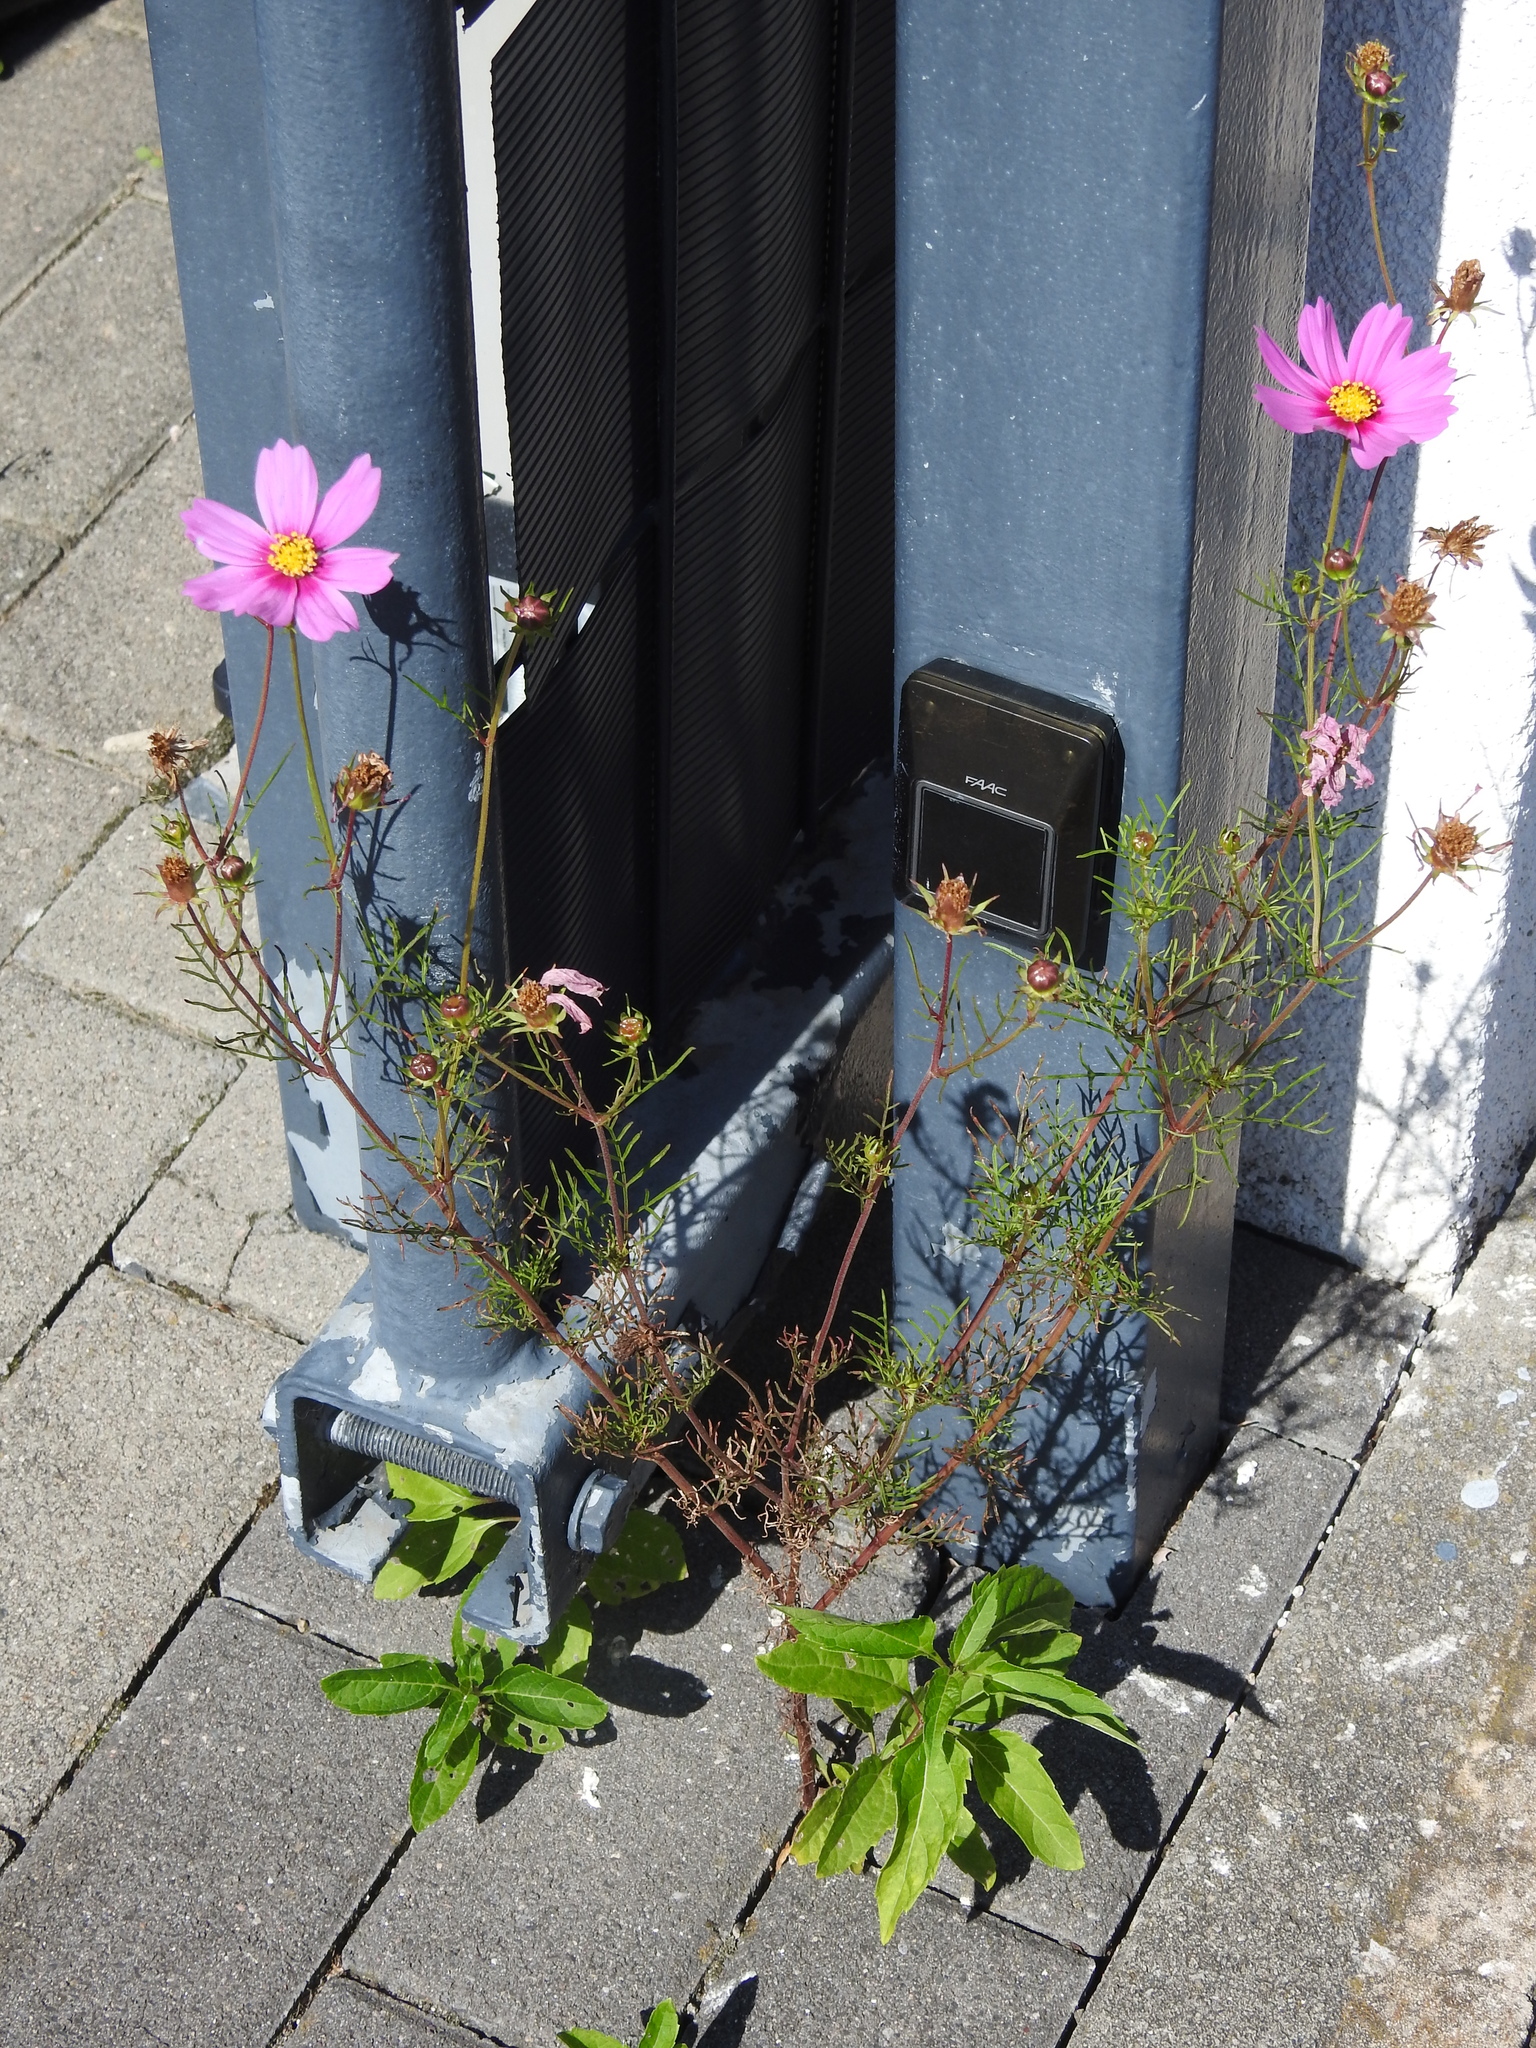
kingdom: Plantae
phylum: Tracheophyta
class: Magnoliopsida
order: Asterales
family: Asteraceae
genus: Cosmos
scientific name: Cosmos bipinnatus
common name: Garden cosmos
